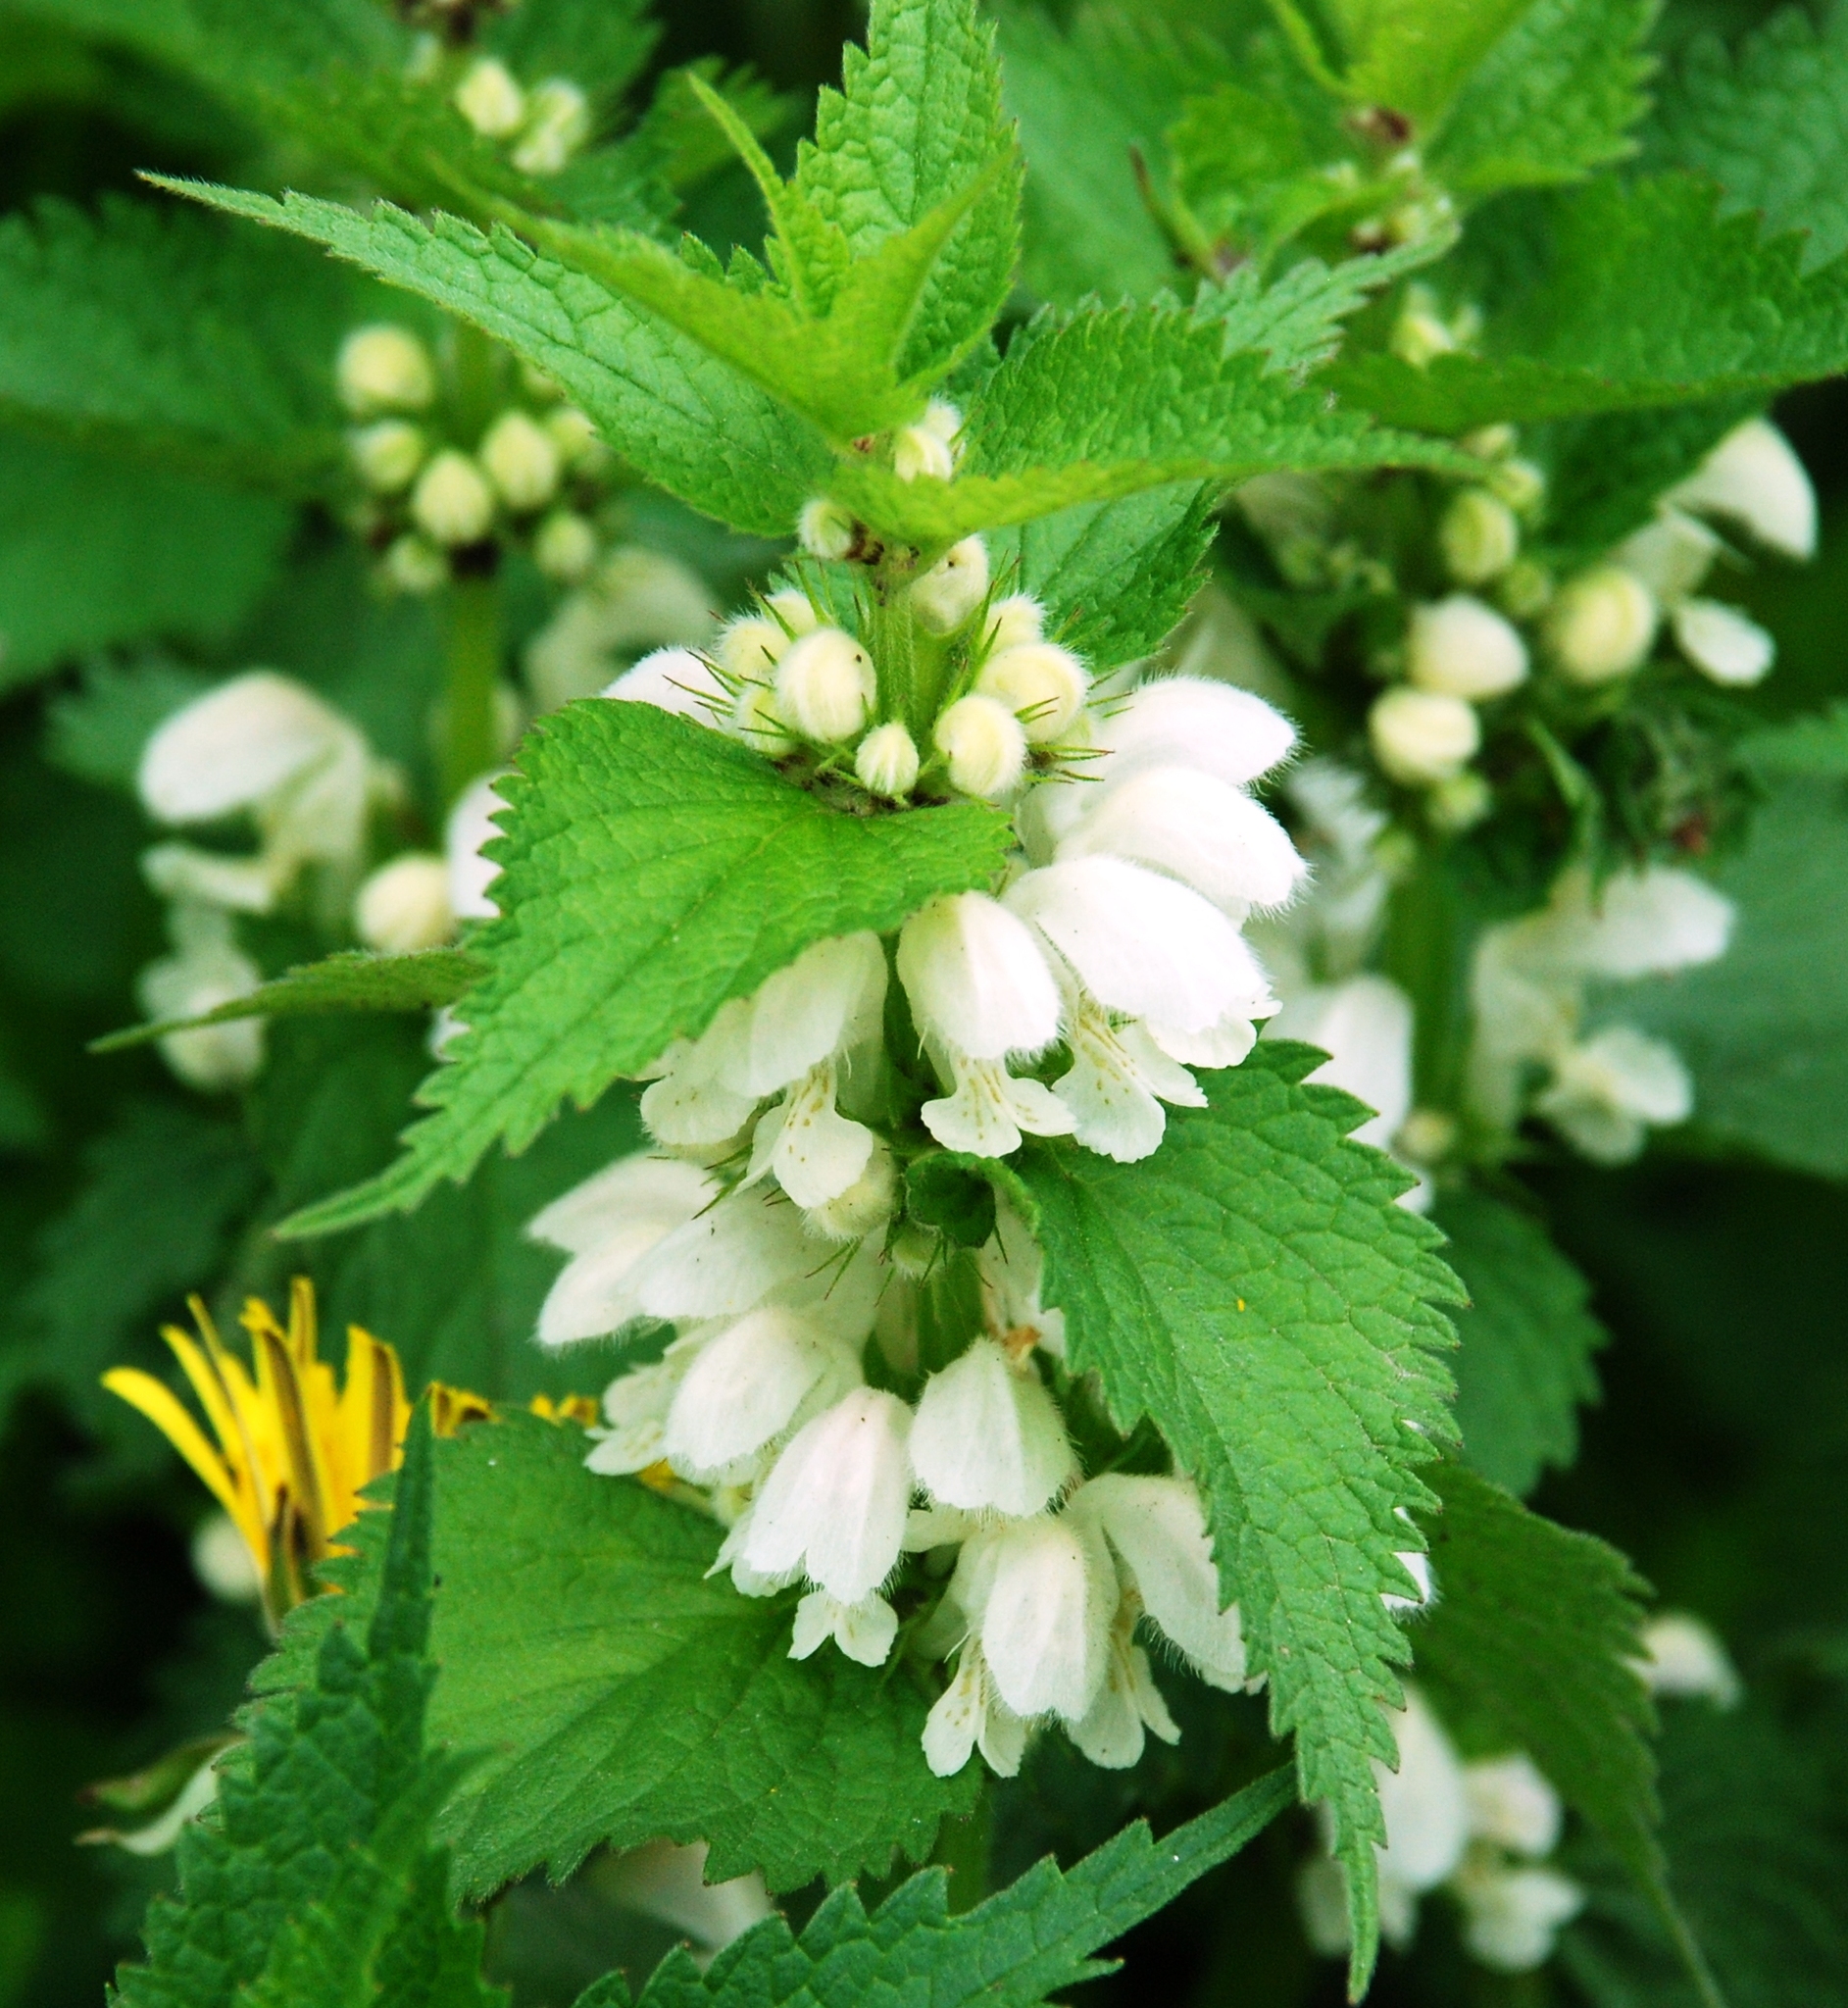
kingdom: Plantae
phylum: Tracheophyta
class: Magnoliopsida
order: Lamiales
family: Lamiaceae
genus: Lamium
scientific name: Lamium album
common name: White dead-nettle
